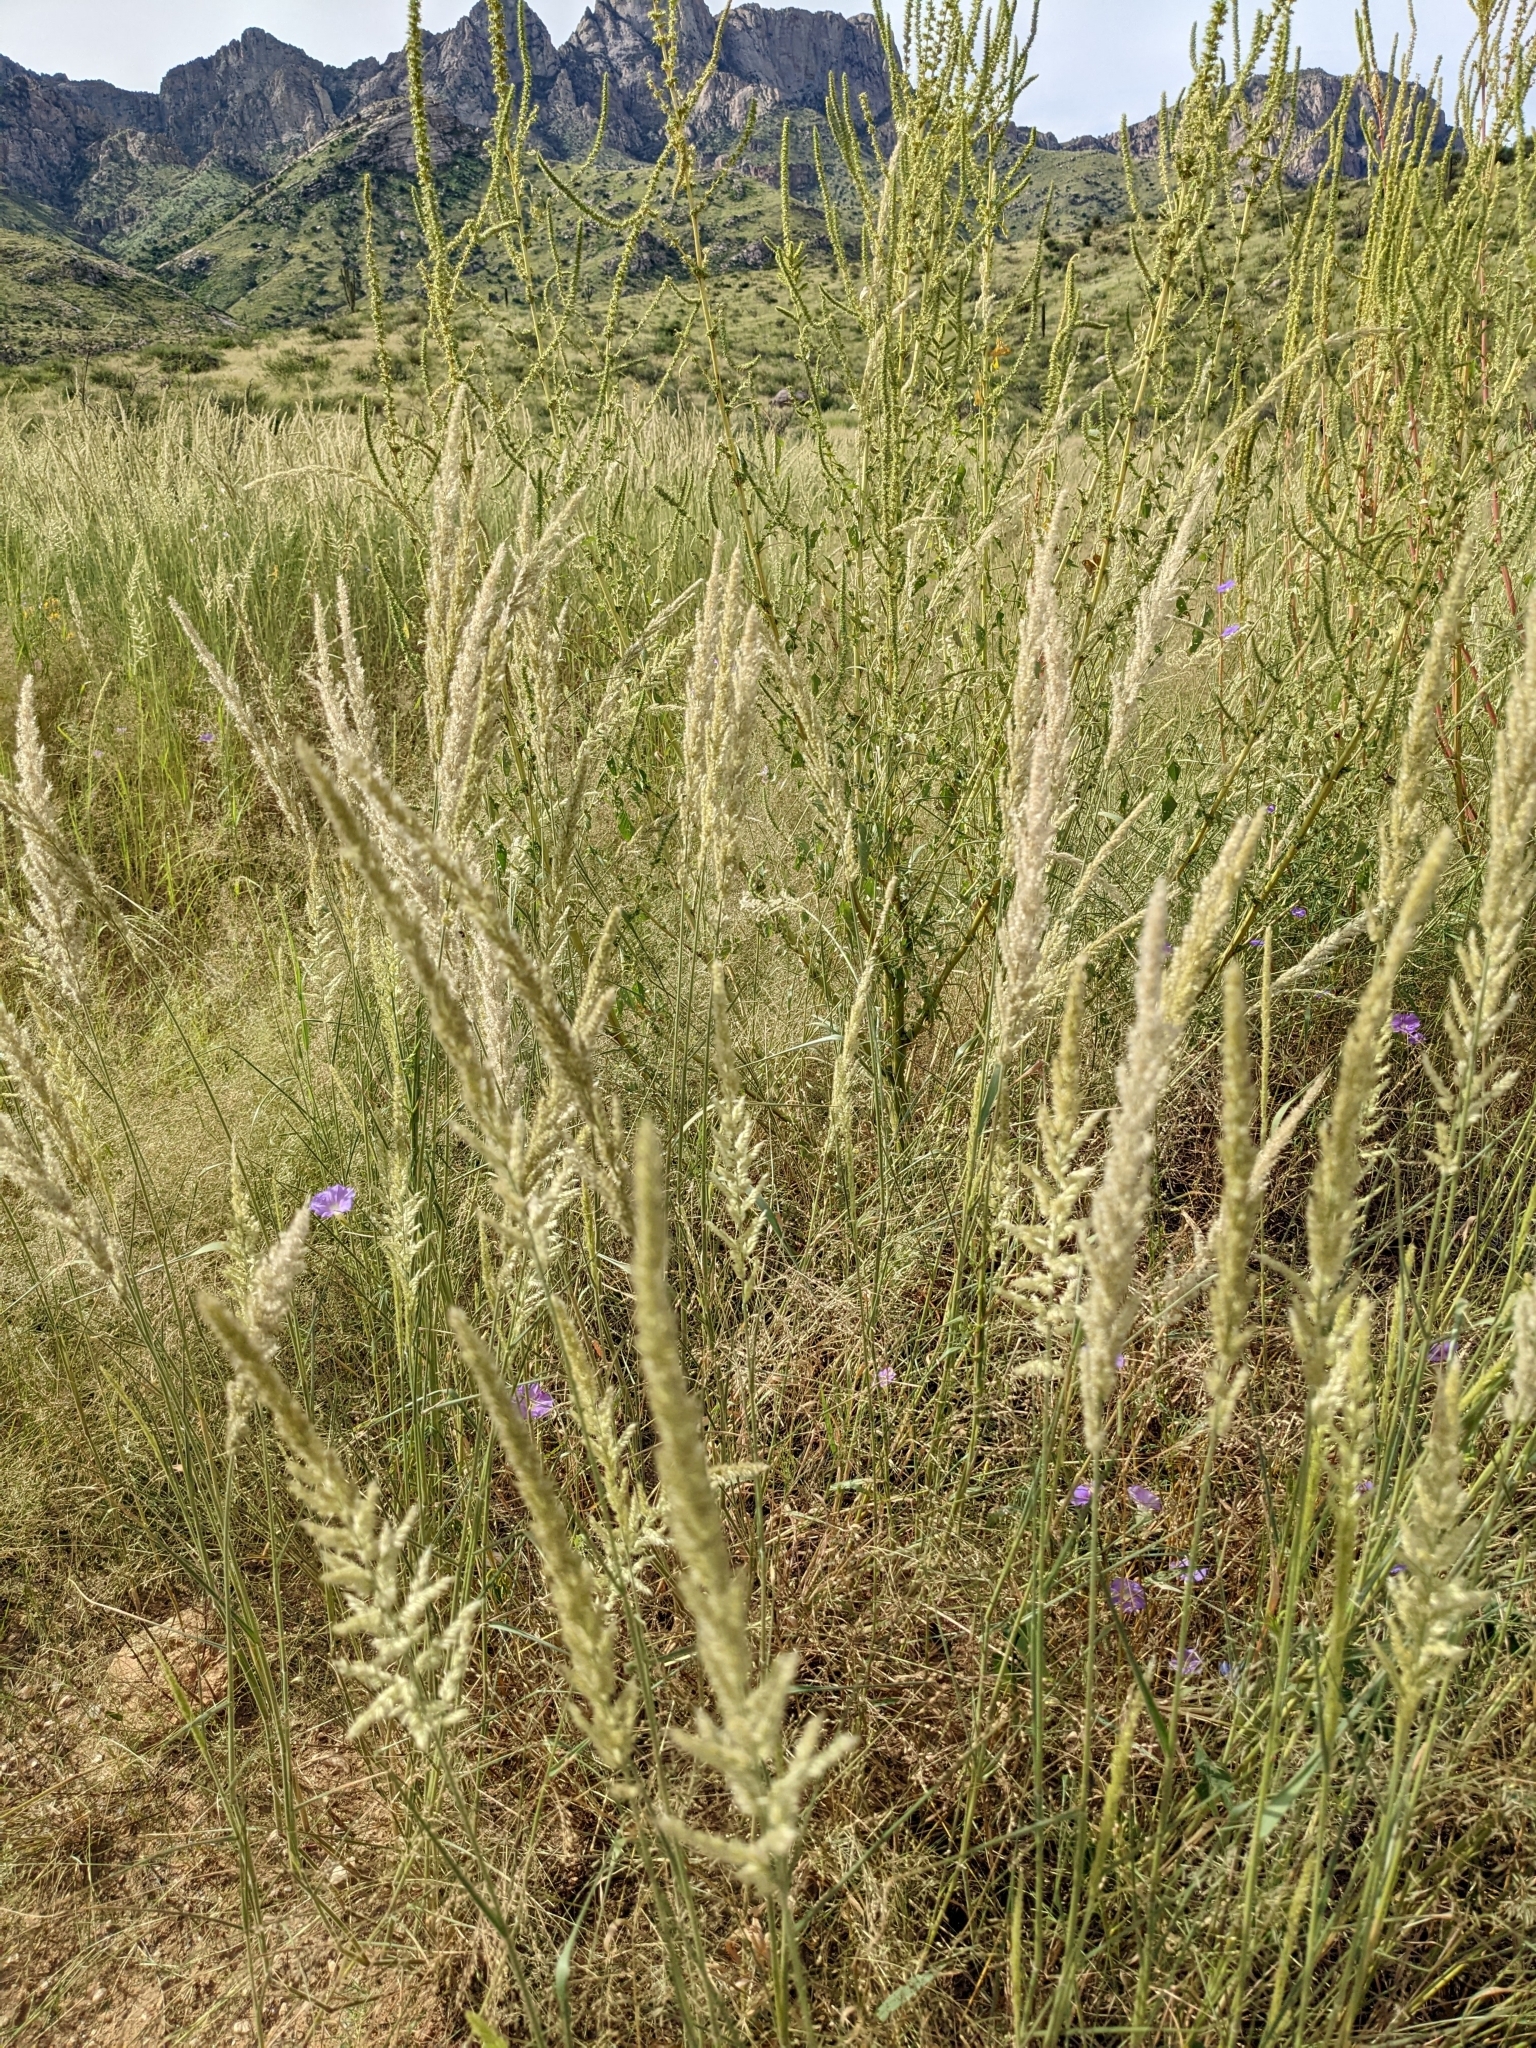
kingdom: Plantae
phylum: Tracheophyta
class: Liliopsida
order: Poales
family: Poaceae
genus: Enneapogon
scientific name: Enneapogon cenchroides
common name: Soft feather pappusgrass
